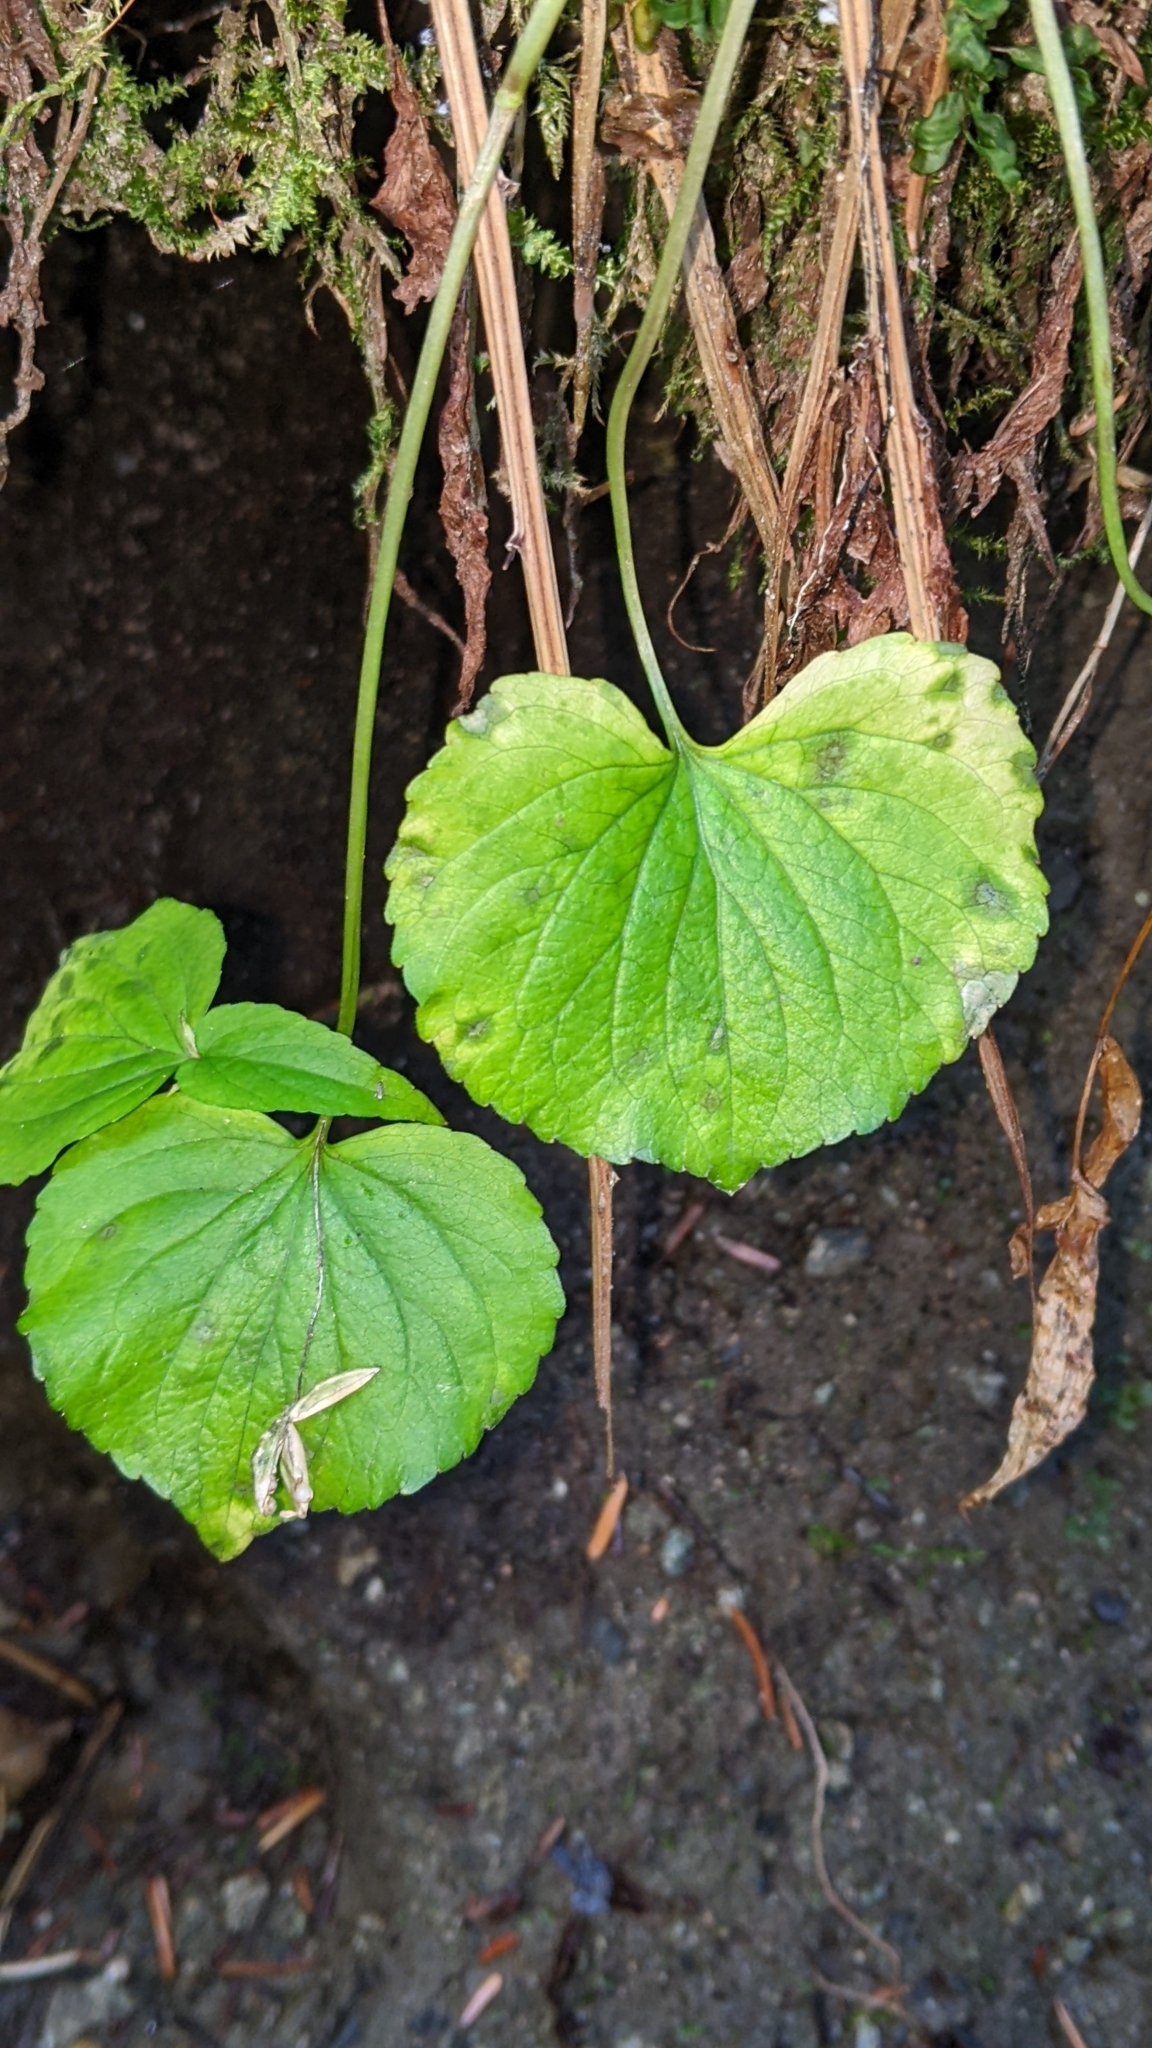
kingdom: Plantae
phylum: Tracheophyta
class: Magnoliopsida
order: Malpighiales
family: Violaceae
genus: Viola
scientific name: Viola glabella
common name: Stream violet
